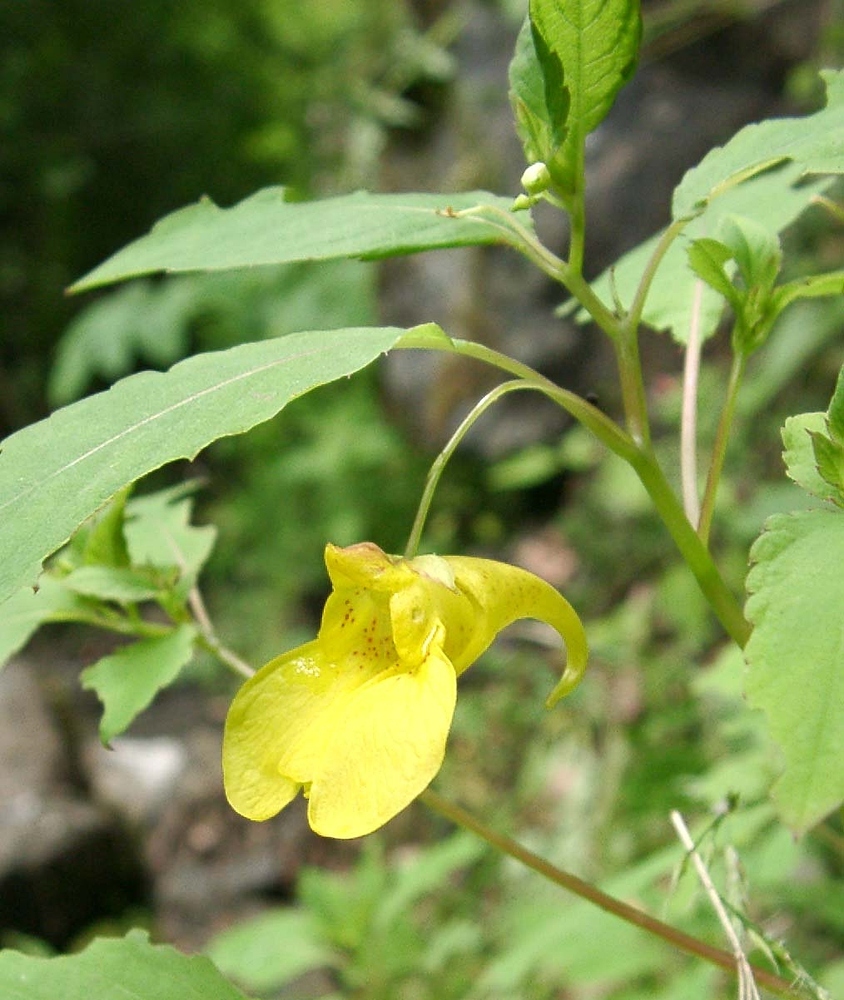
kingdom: Plantae
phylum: Tracheophyta
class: Magnoliopsida
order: Ericales
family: Balsaminaceae
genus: Impatiens
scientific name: Impatiens noli-tangere
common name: Touch-me-not balsam
